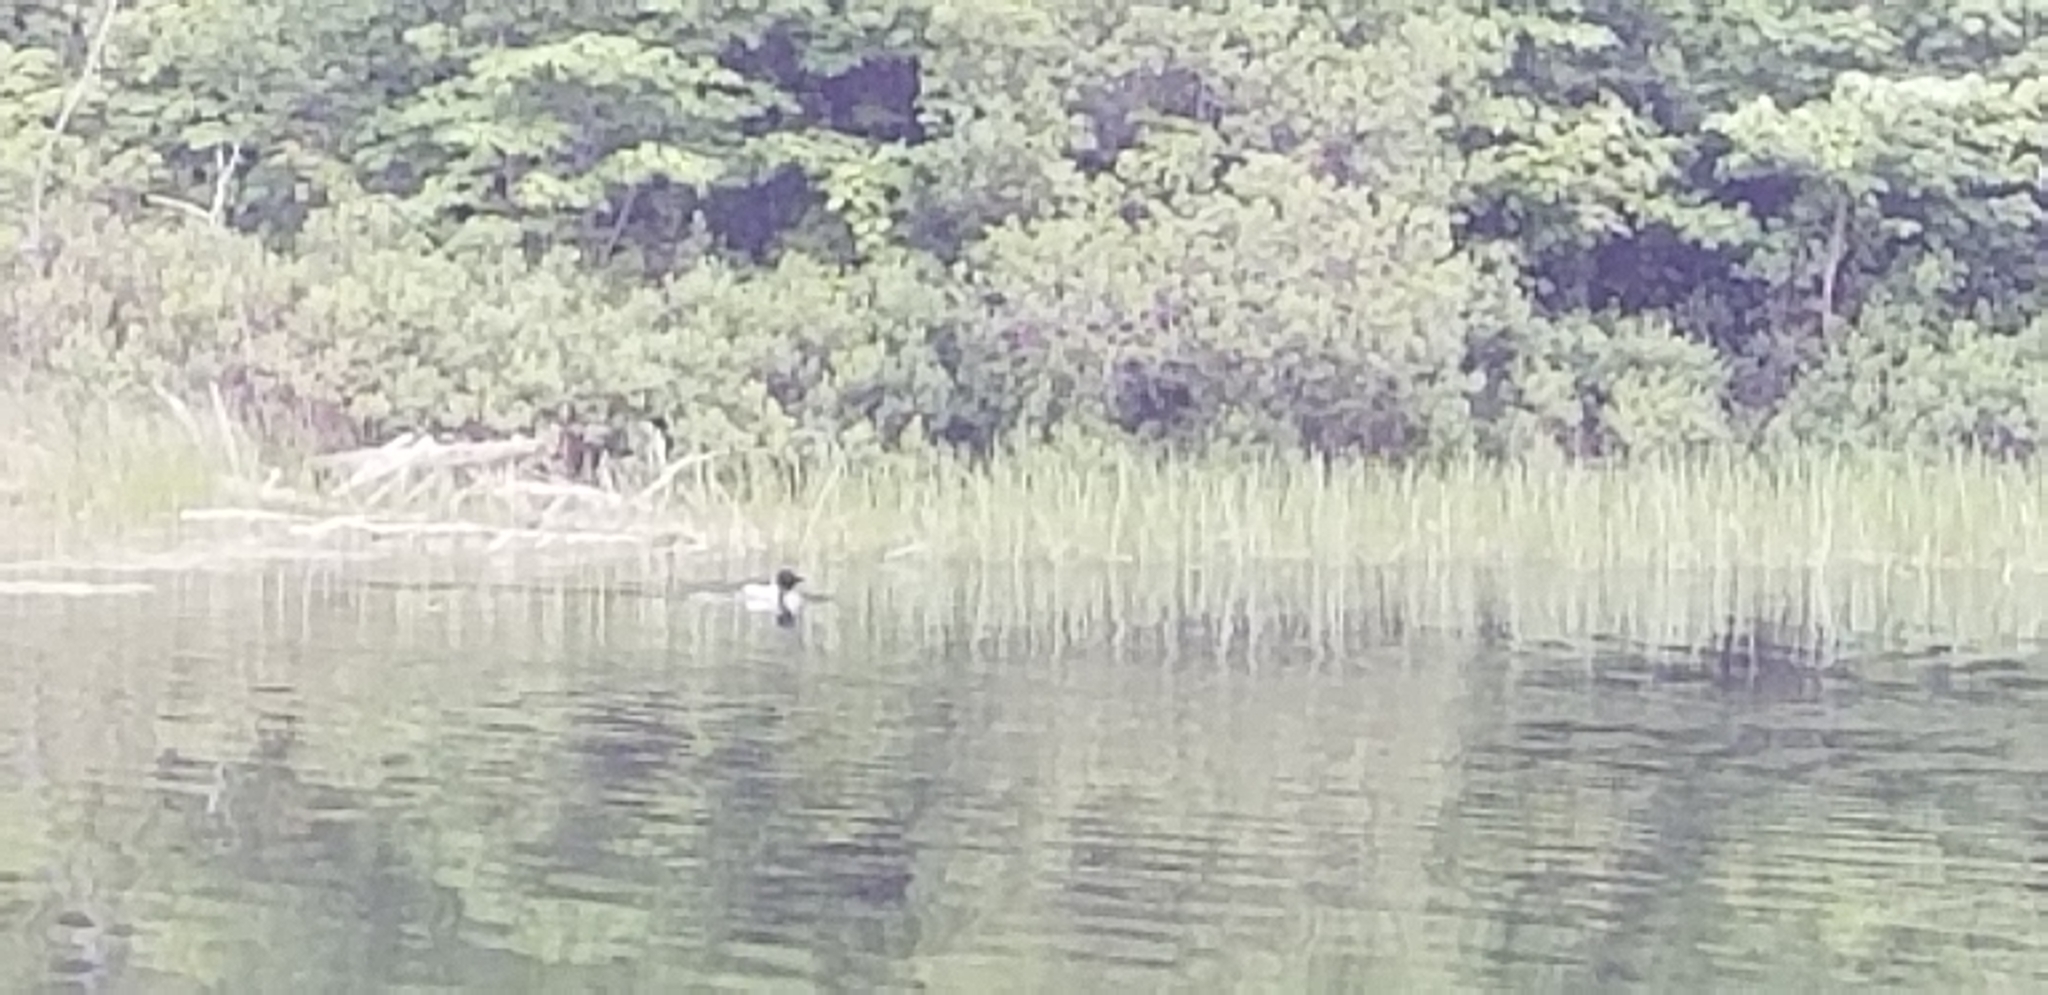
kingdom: Animalia
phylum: Chordata
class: Aves
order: Gaviiformes
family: Gaviidae
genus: Gavia
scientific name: Gavia immer
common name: Common loon
